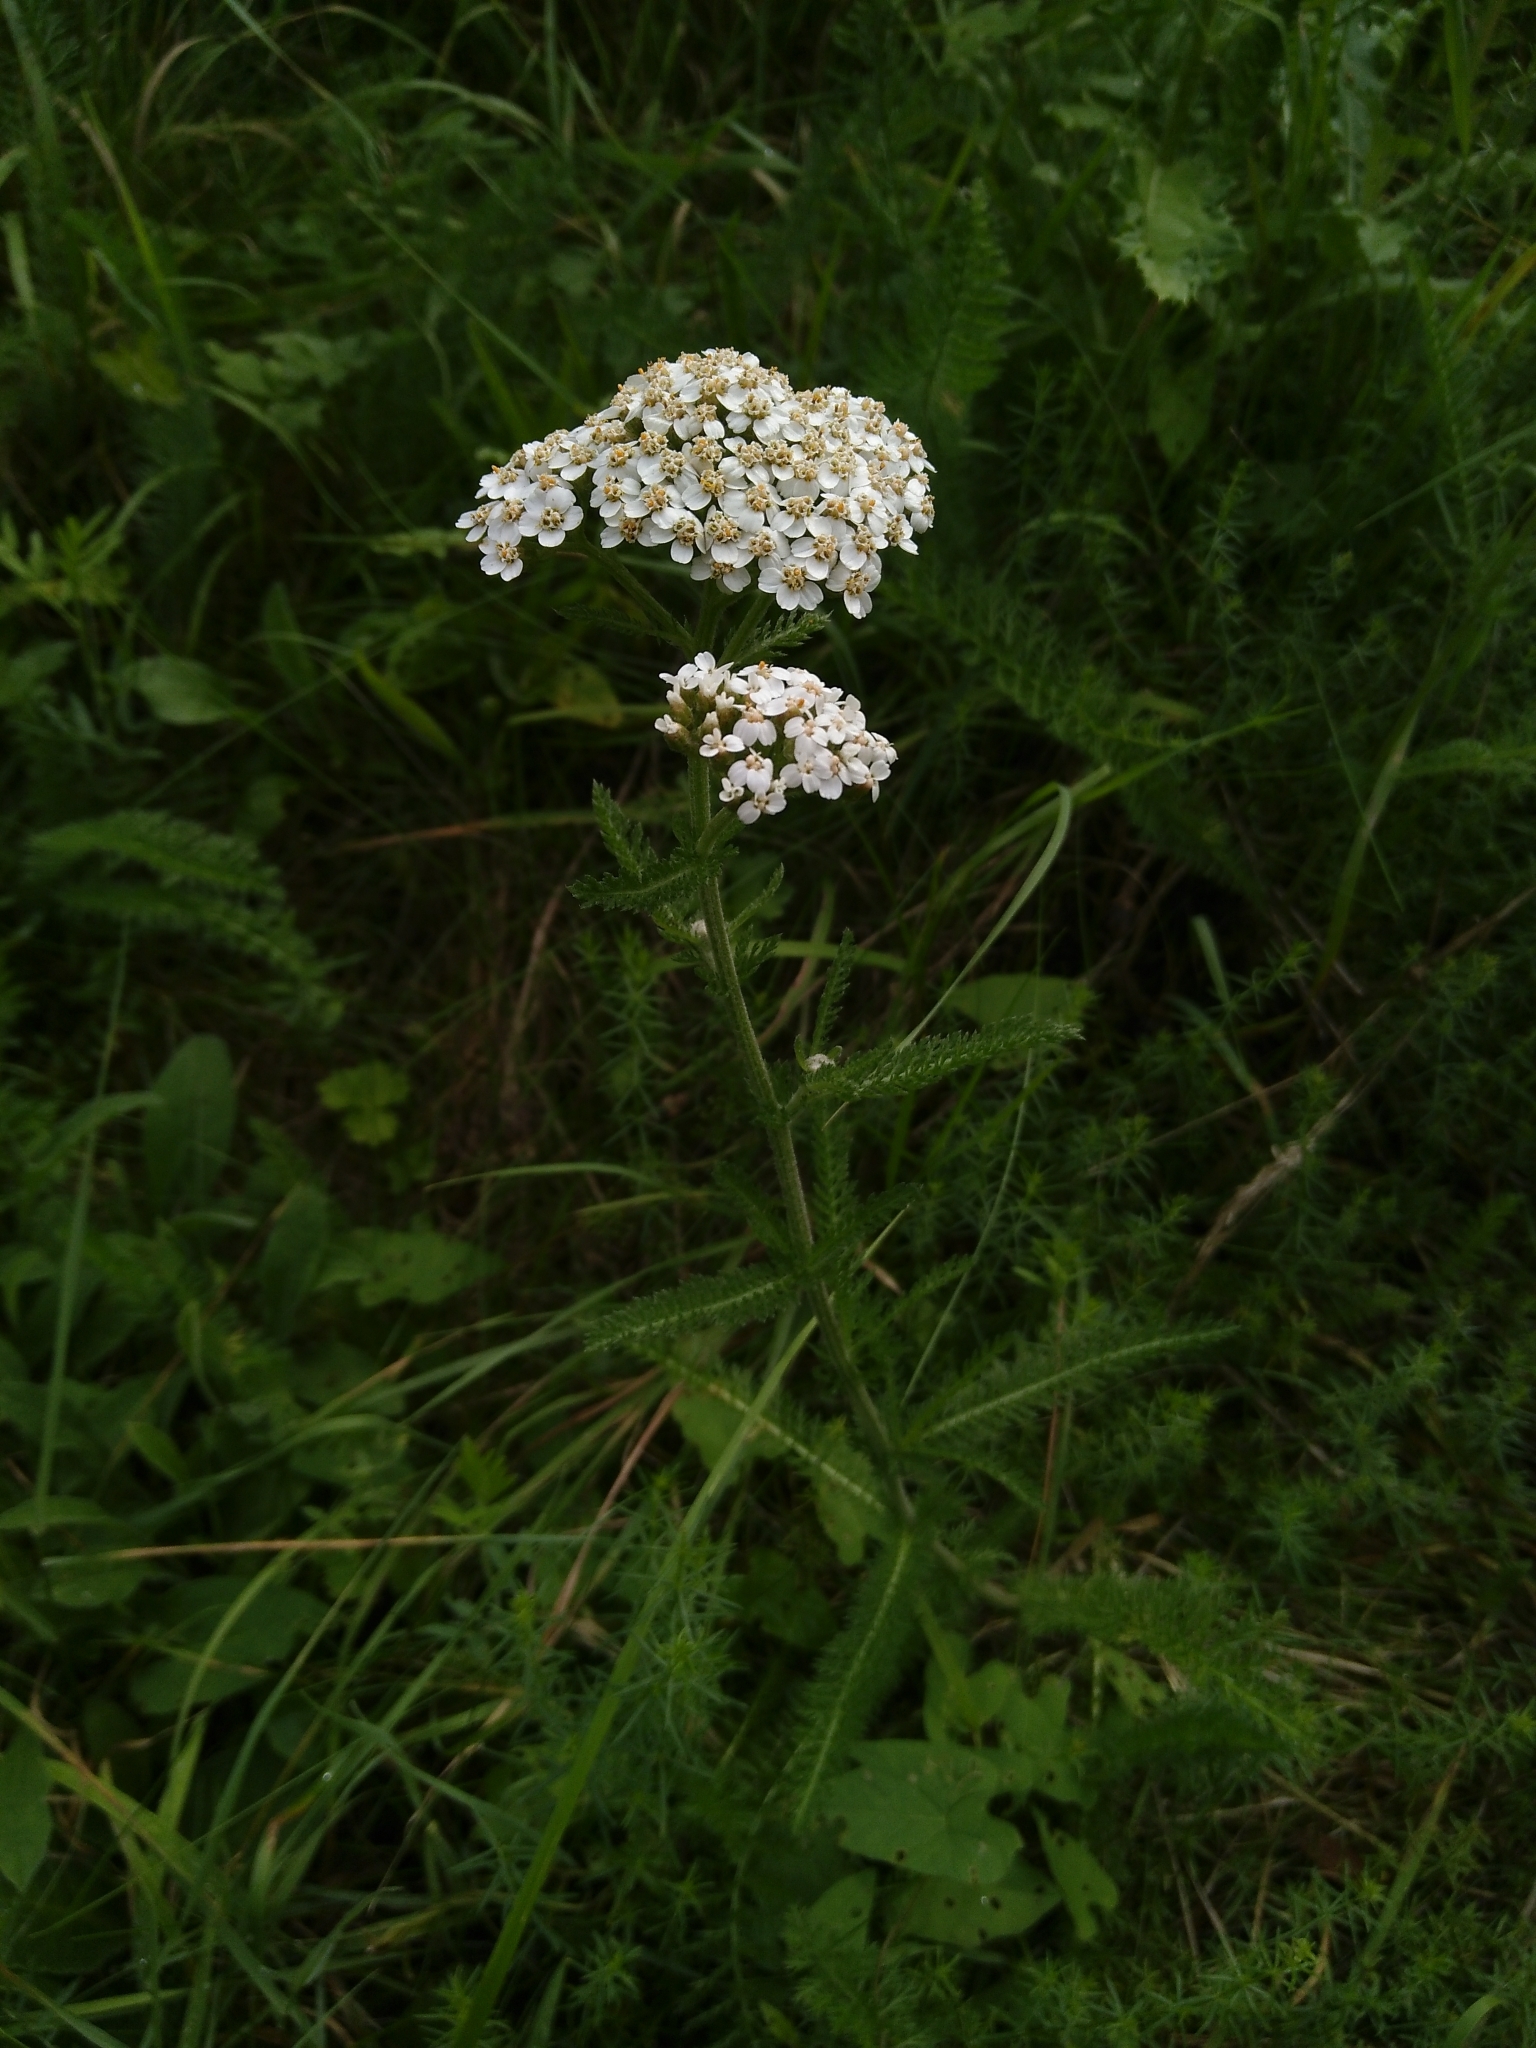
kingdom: Plantae
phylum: Tracheophyta
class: Magnoliopsida
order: Asterales
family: Asteraceae
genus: Achillea
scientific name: Achillea millefolium
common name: Yarrow
